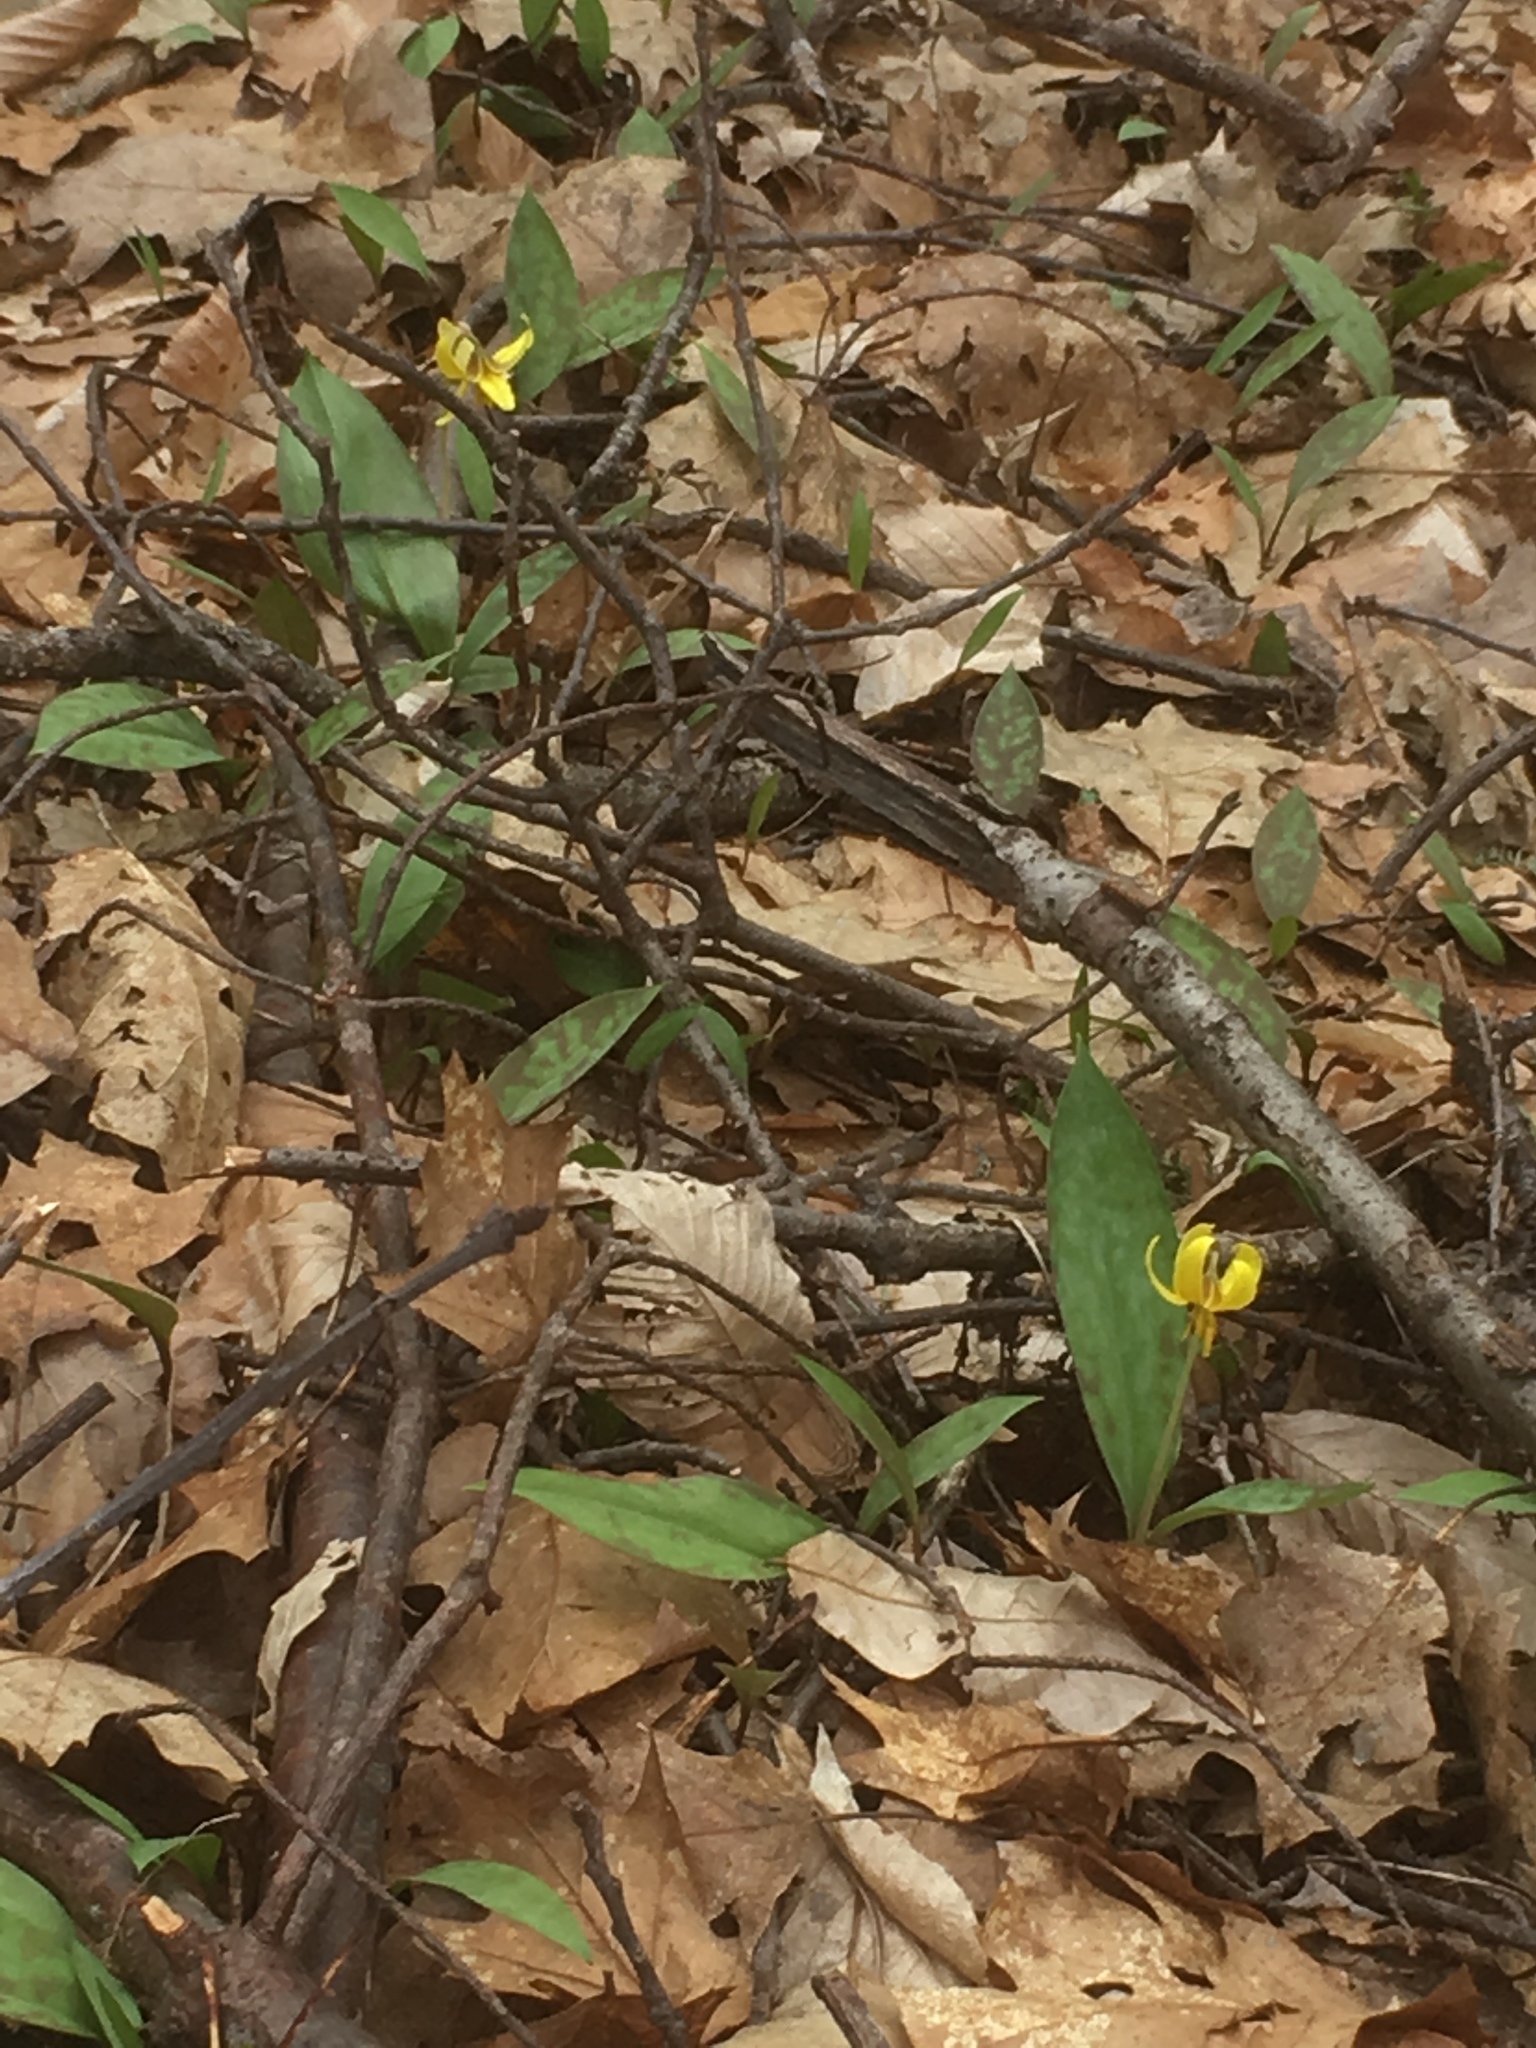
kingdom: Plantae
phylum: Tracheophyta
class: Liliopsida
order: Liliales
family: Liliaceae
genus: Erythronium
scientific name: Erythronium americanum
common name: Yellow adder's-tongue
